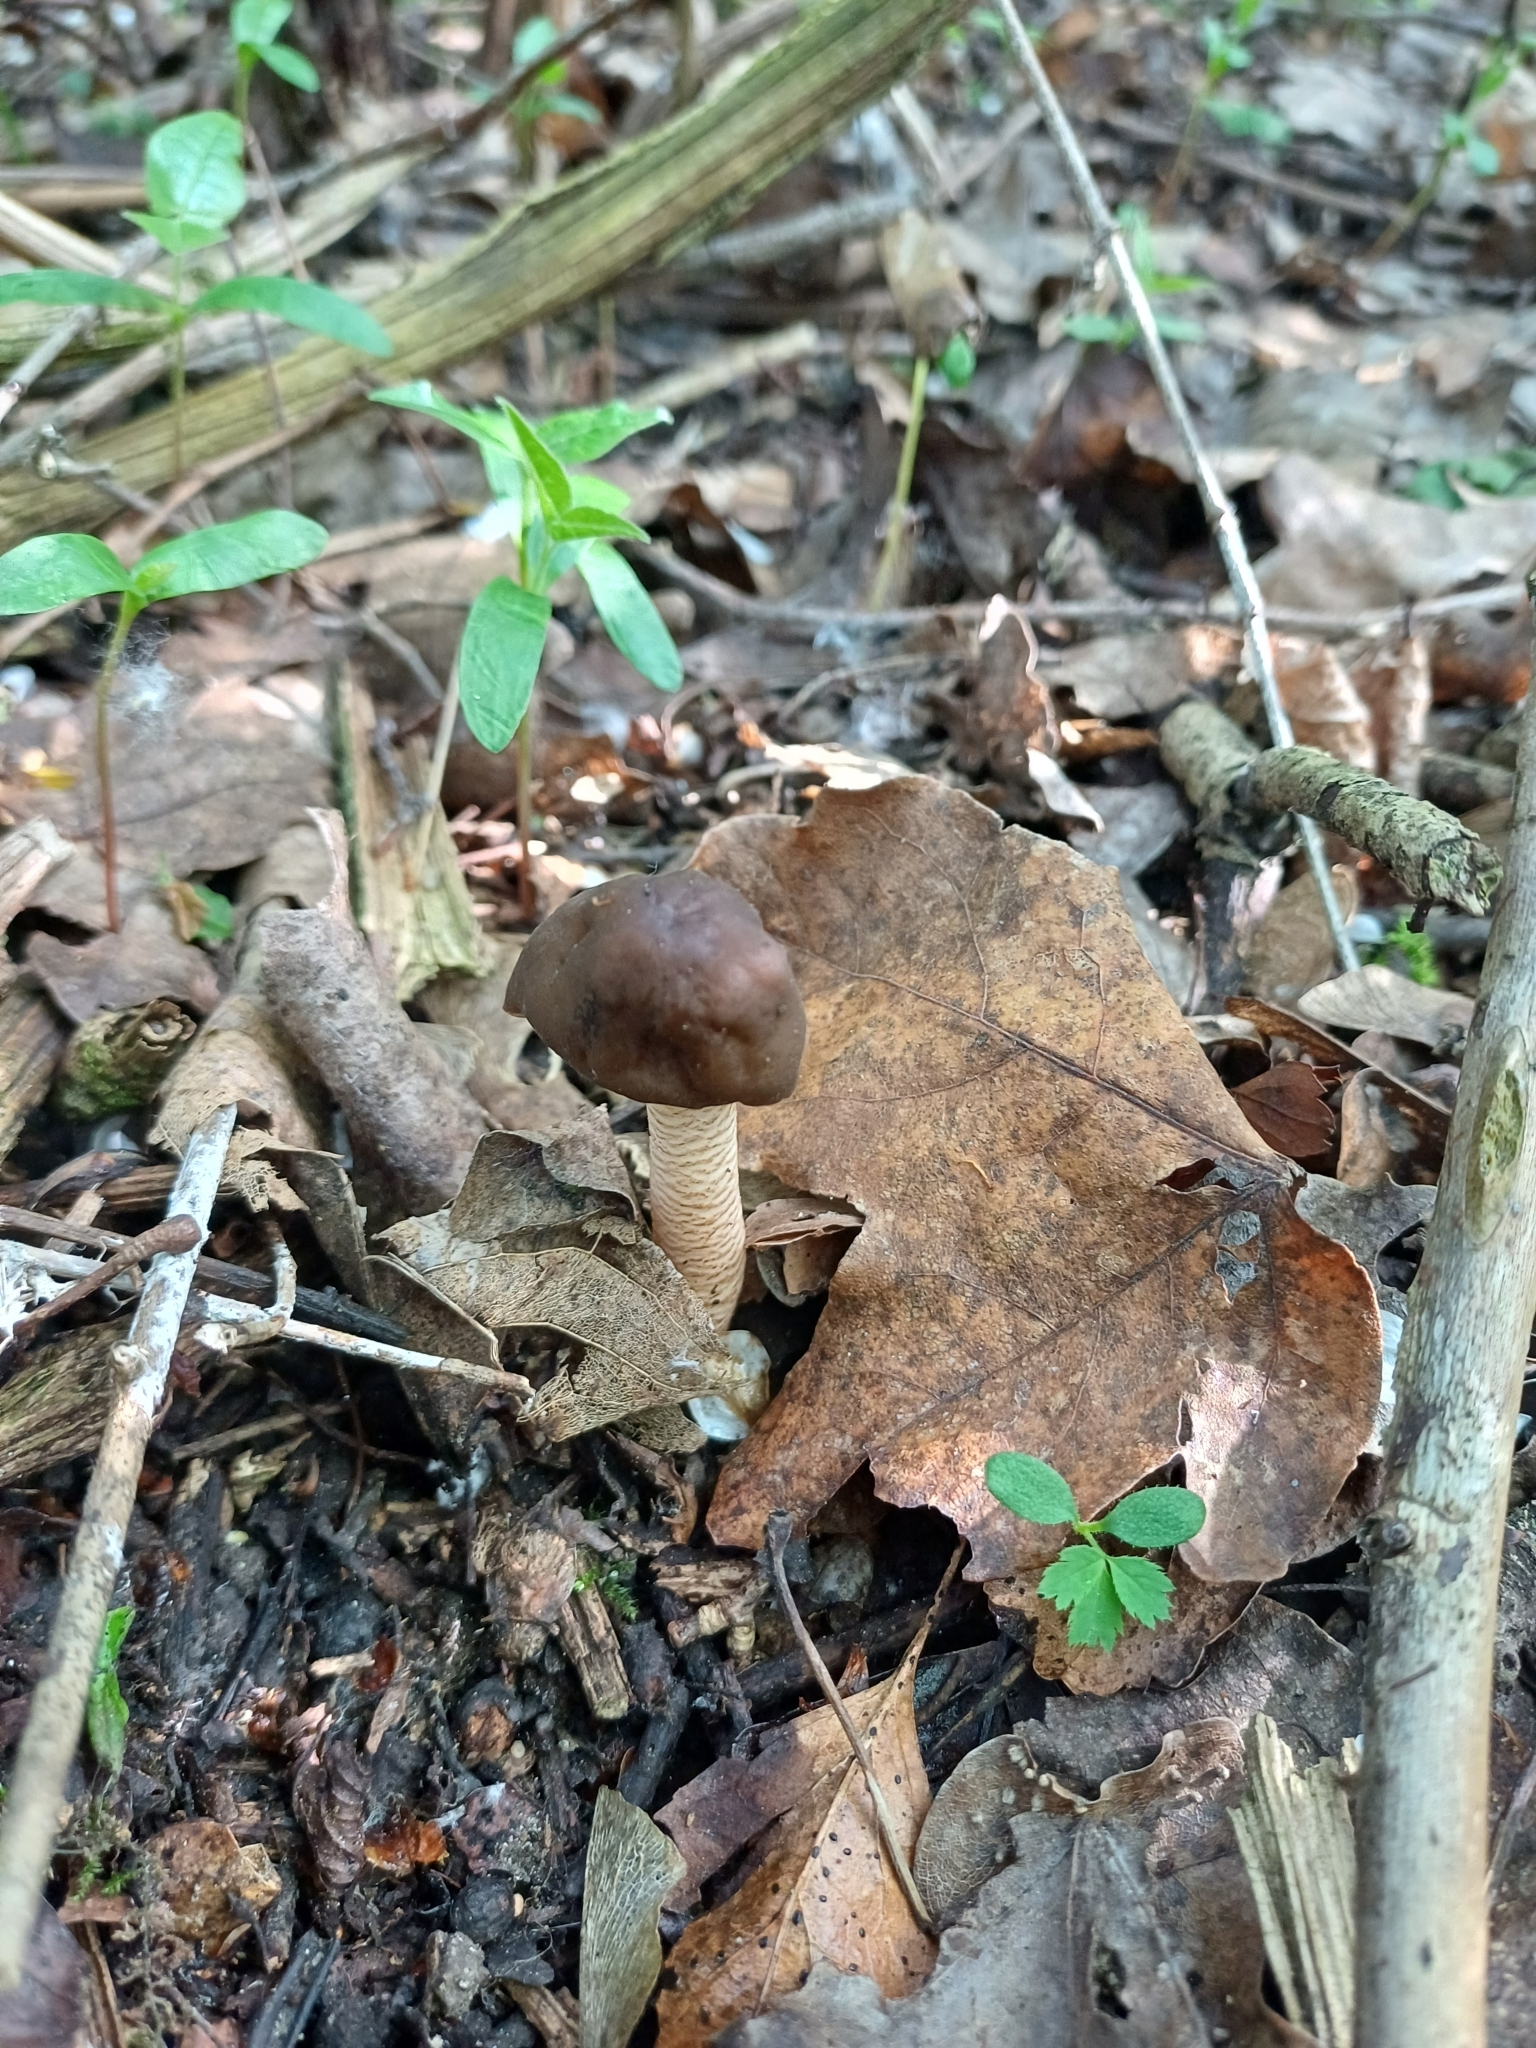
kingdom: Fungi
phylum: Ascomycota
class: Pezizomycetes
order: Pezizales
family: Morchellaceae
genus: Verpa
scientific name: Verpa conica
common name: Thimble morel
